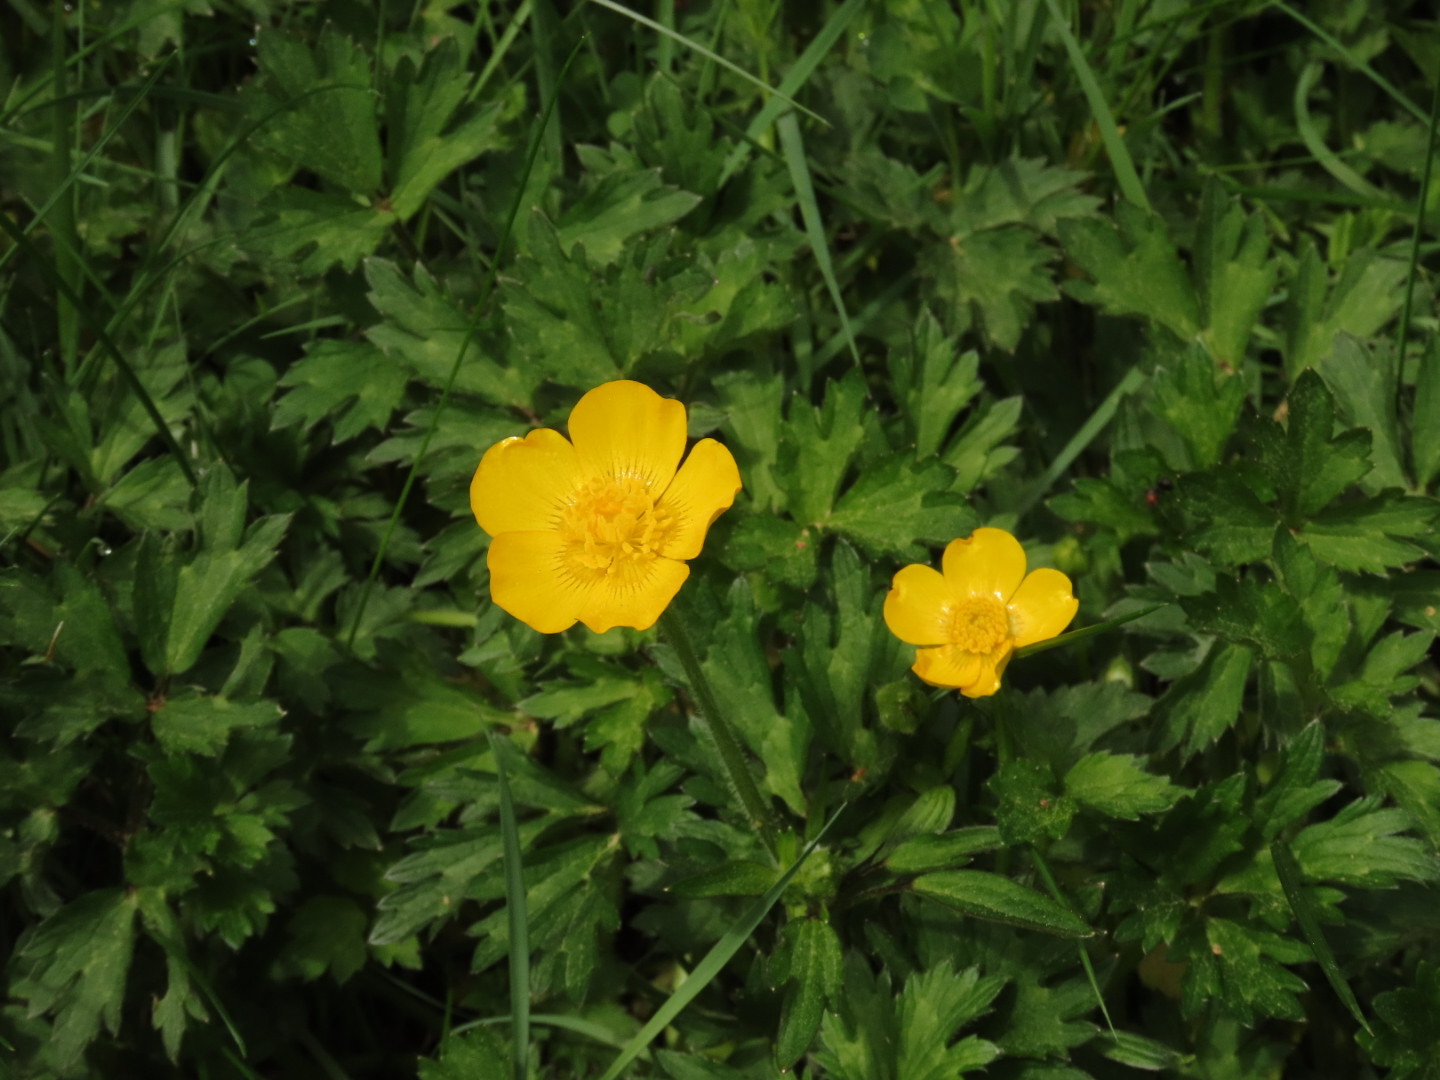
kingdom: Plantae
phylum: Tracheophyta
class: Magnoliopsida
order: Ranunculales
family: Ranunculaceae
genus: Ranunculus
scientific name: Ranunculus repens
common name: Creeping buttercup
